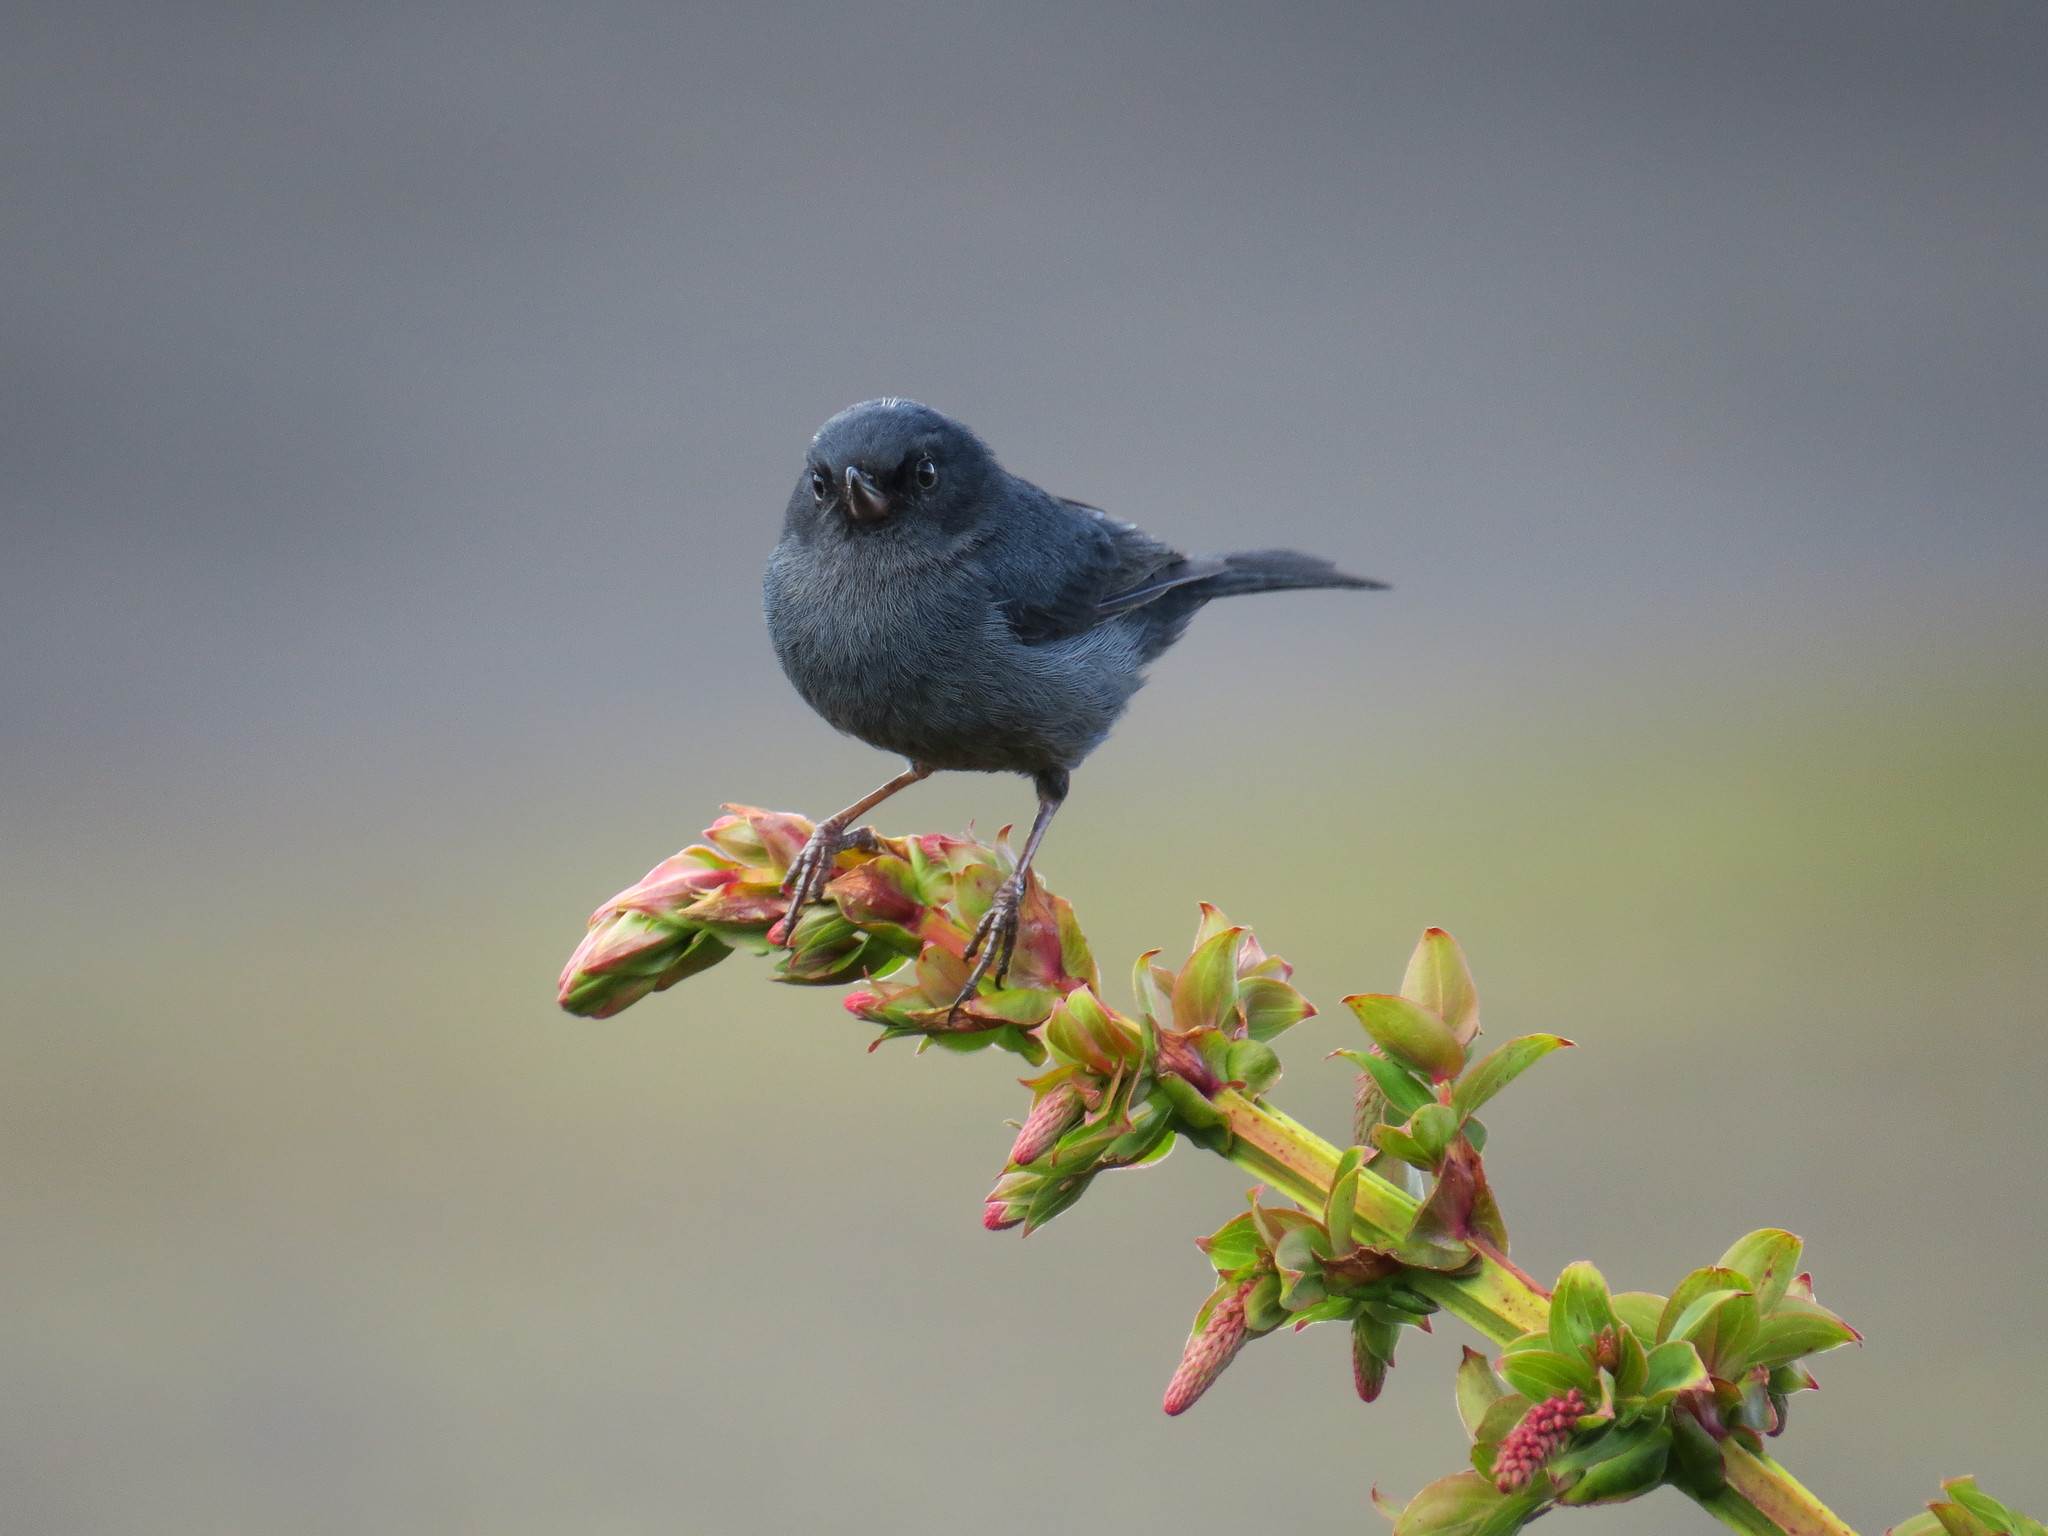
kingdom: Animalia
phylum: Chordata
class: Aves
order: Passeriformes
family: Thraupidae
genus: Diglossa
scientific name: Diglossa plumbea
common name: Slaty flowerpiercer
